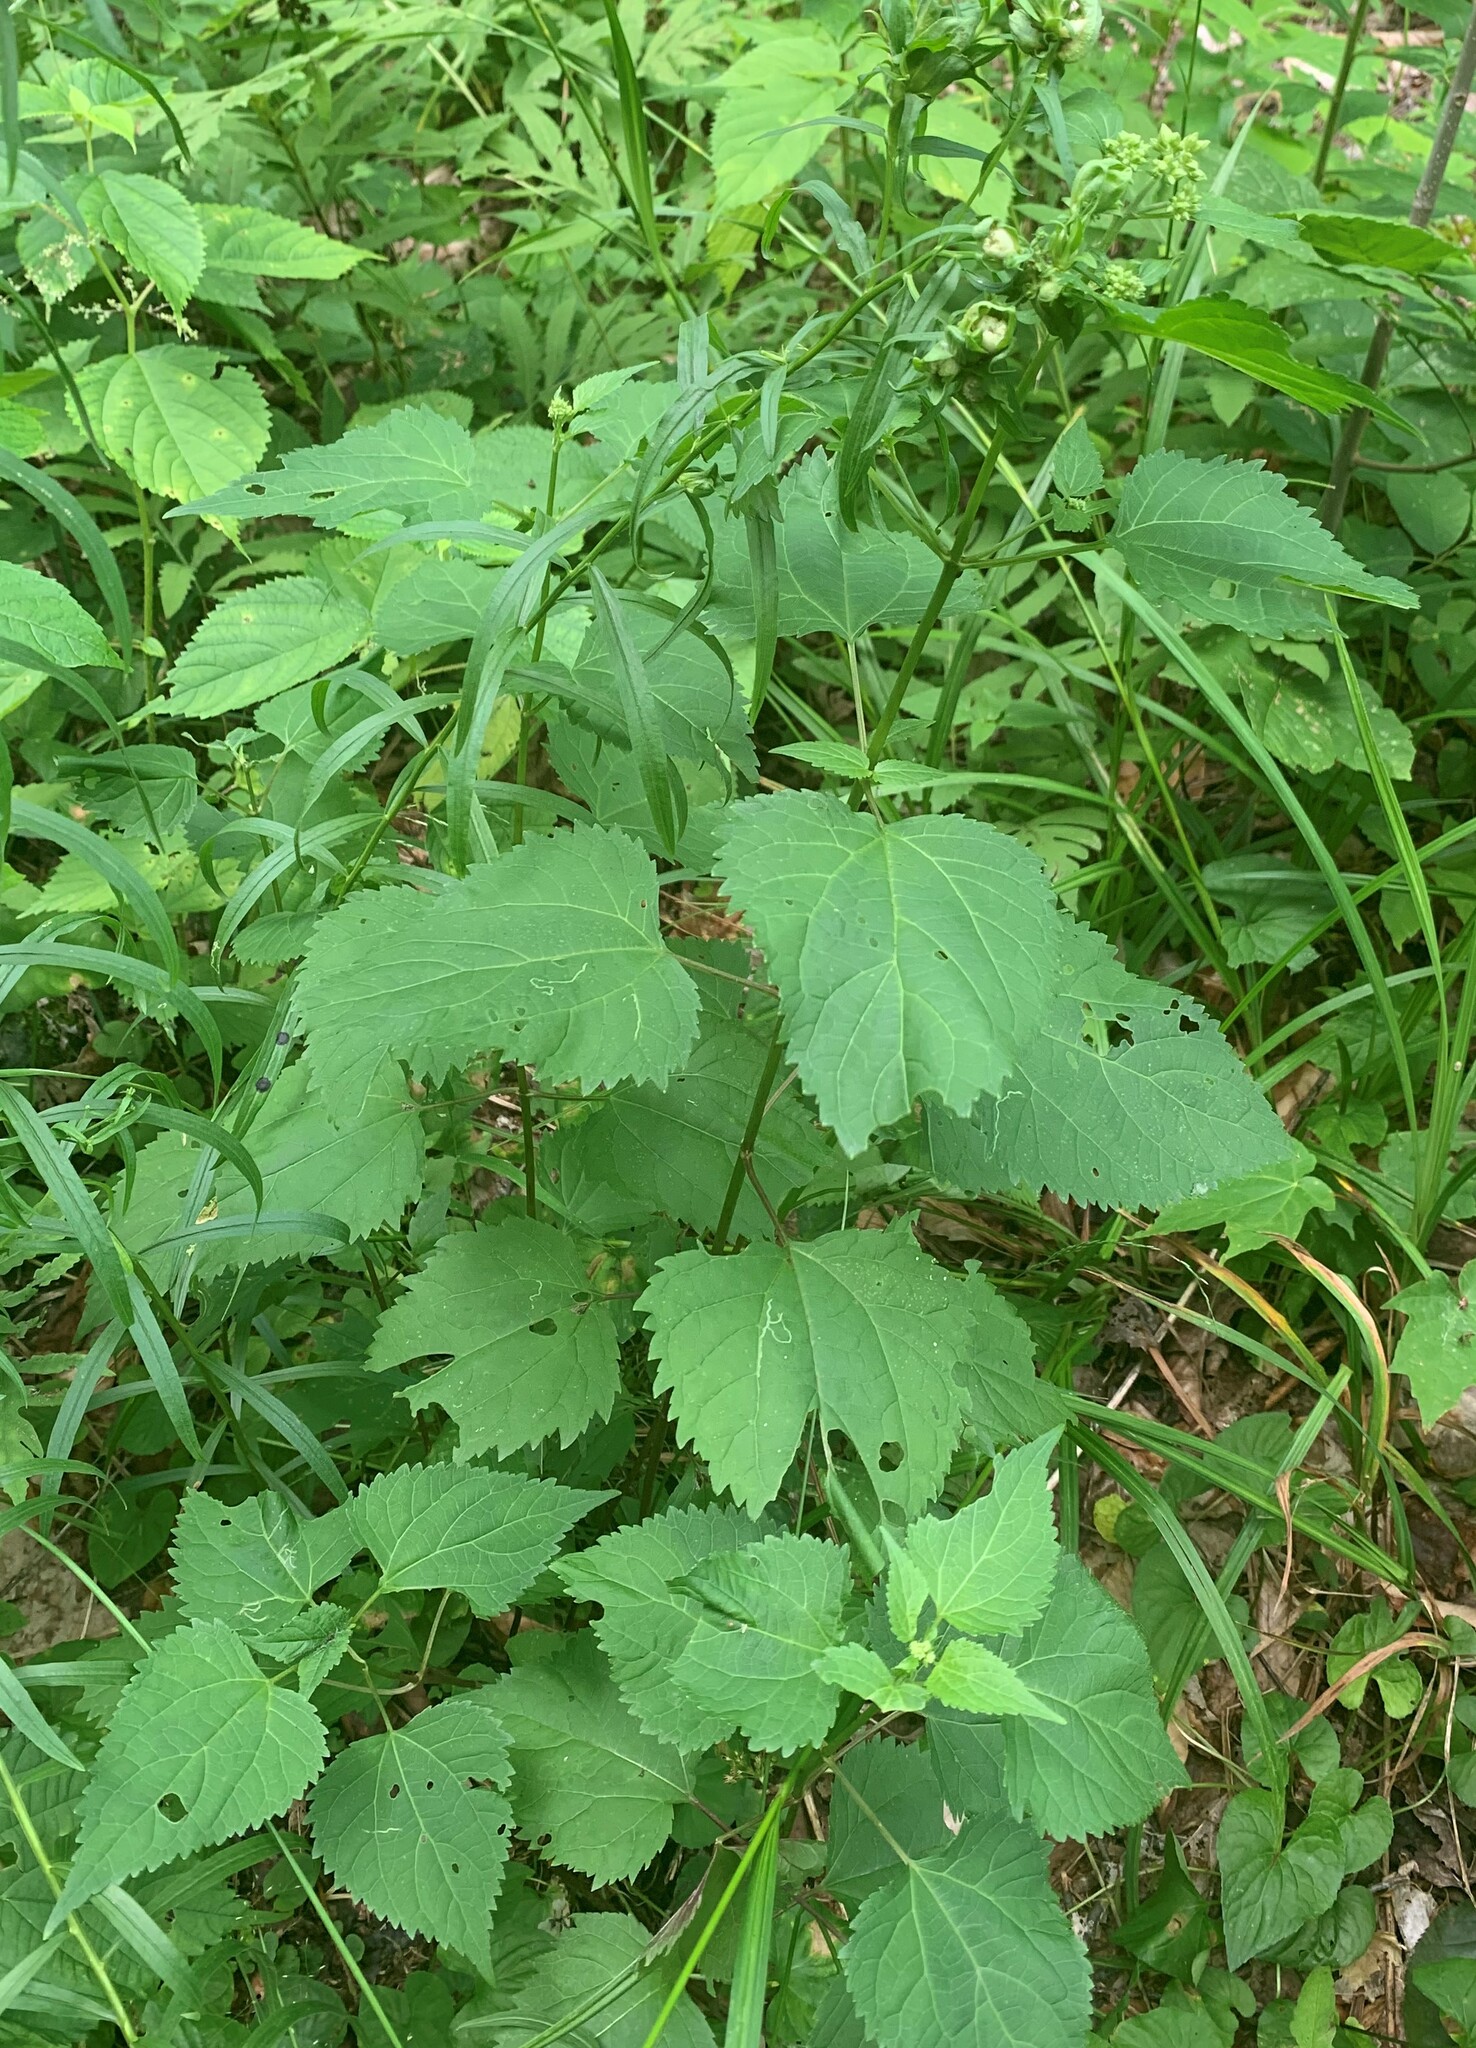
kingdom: Plantae
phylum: Tracheophyta
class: Magnoliopsida
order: Asterales
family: Asteraceae
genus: Ageratina
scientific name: Ageratina altissima
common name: White snakeroot
